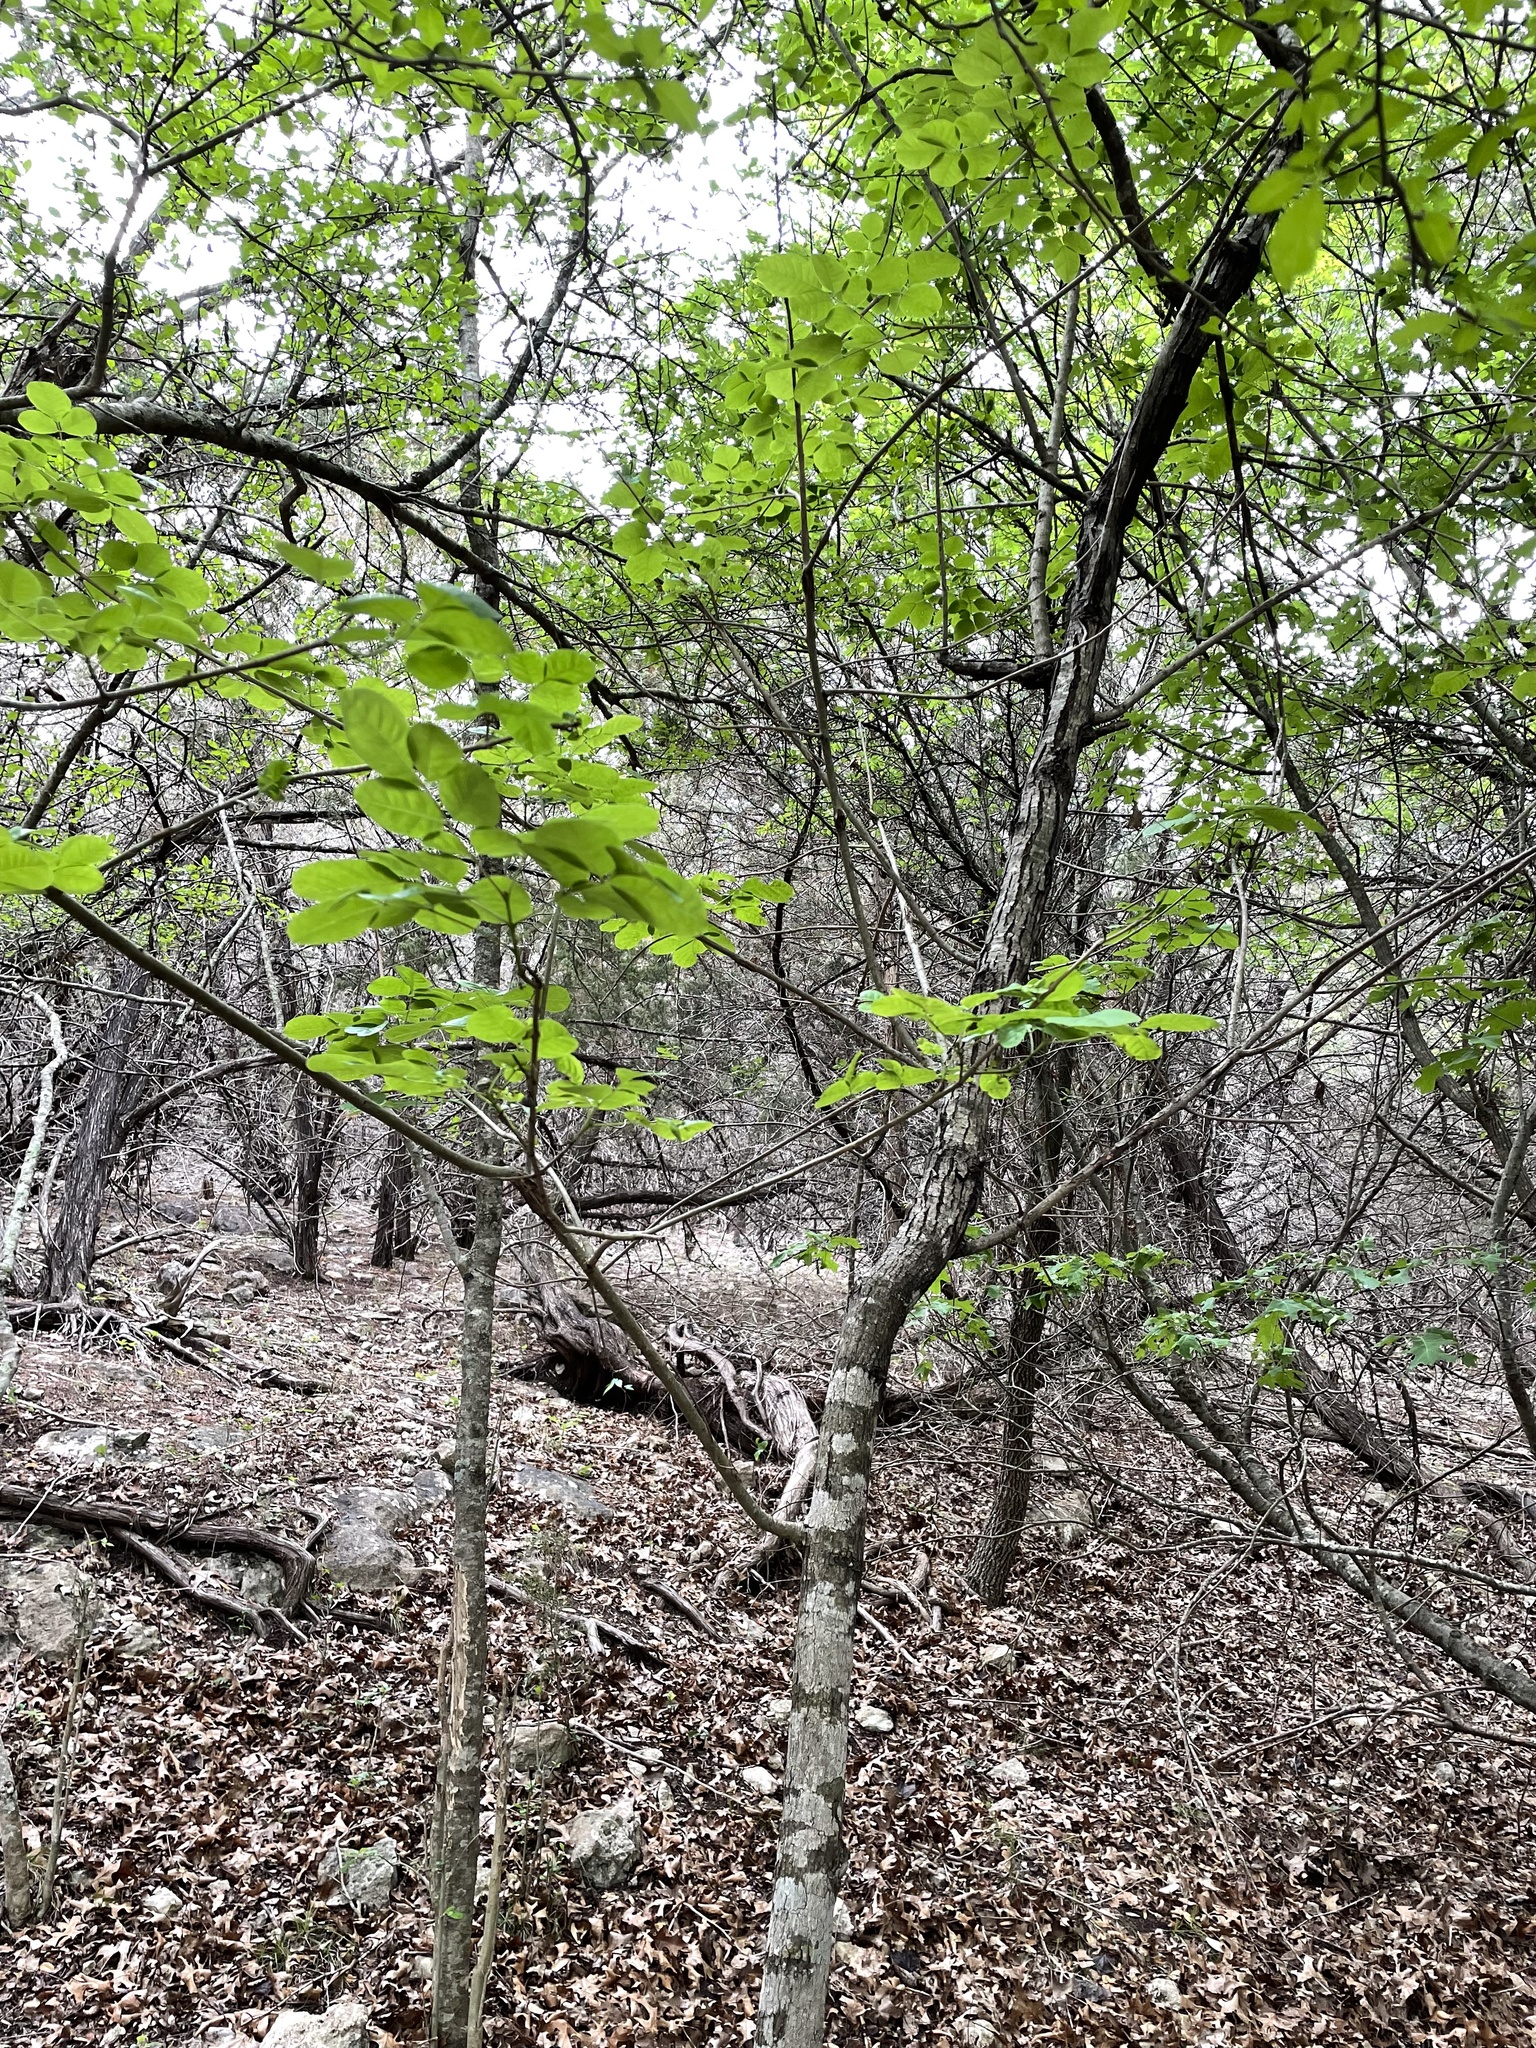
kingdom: Plantae
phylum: Tracheophyta
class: Magnoliopsida
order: Lamiales
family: Oleaceae
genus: Fraxinus
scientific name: Fraxinus albicans
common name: Texas ash
